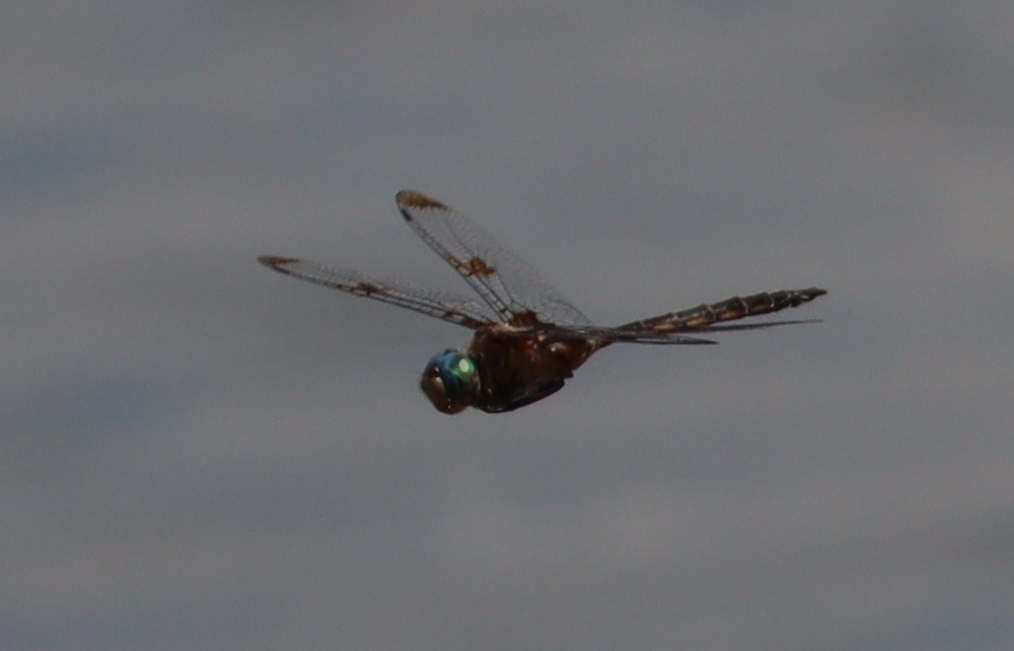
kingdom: Animalia
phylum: Arthropoda
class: Insecta
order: Odonata
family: Corduliidae
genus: Epitheca
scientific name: Epitheca princeps
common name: Prince baskettail
